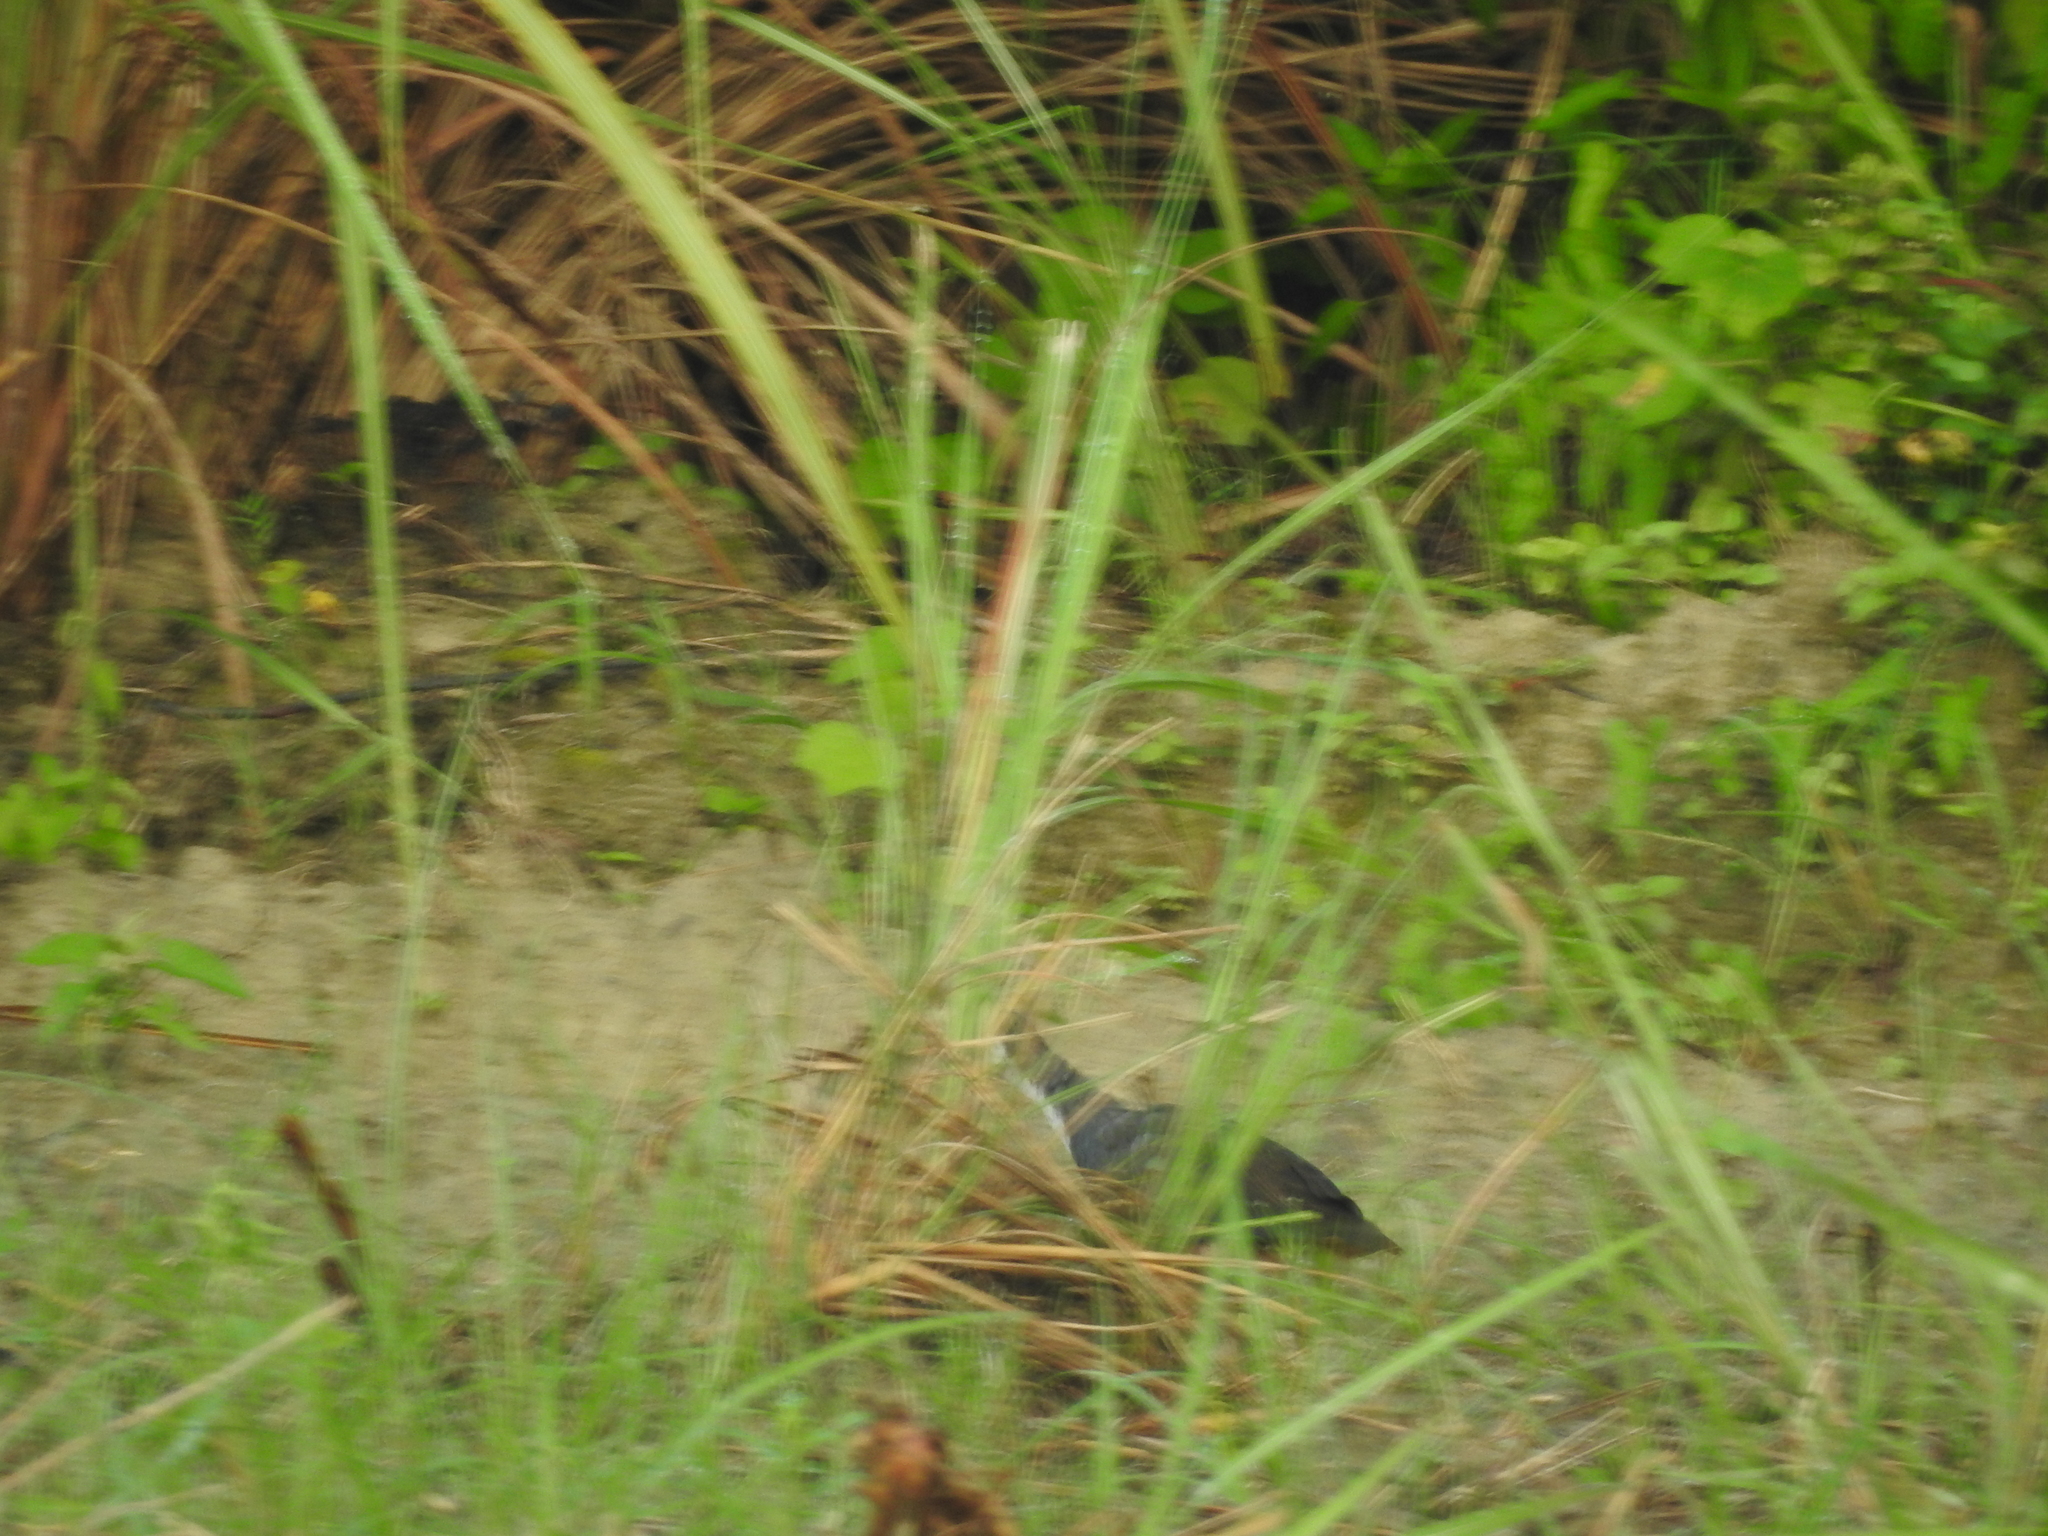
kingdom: Animalia
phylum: Chordata
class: Aves
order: Gruiformes
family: Rallidae
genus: Amaurornis
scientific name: Amaurornis phoenicurus
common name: White-breasted waterhen
